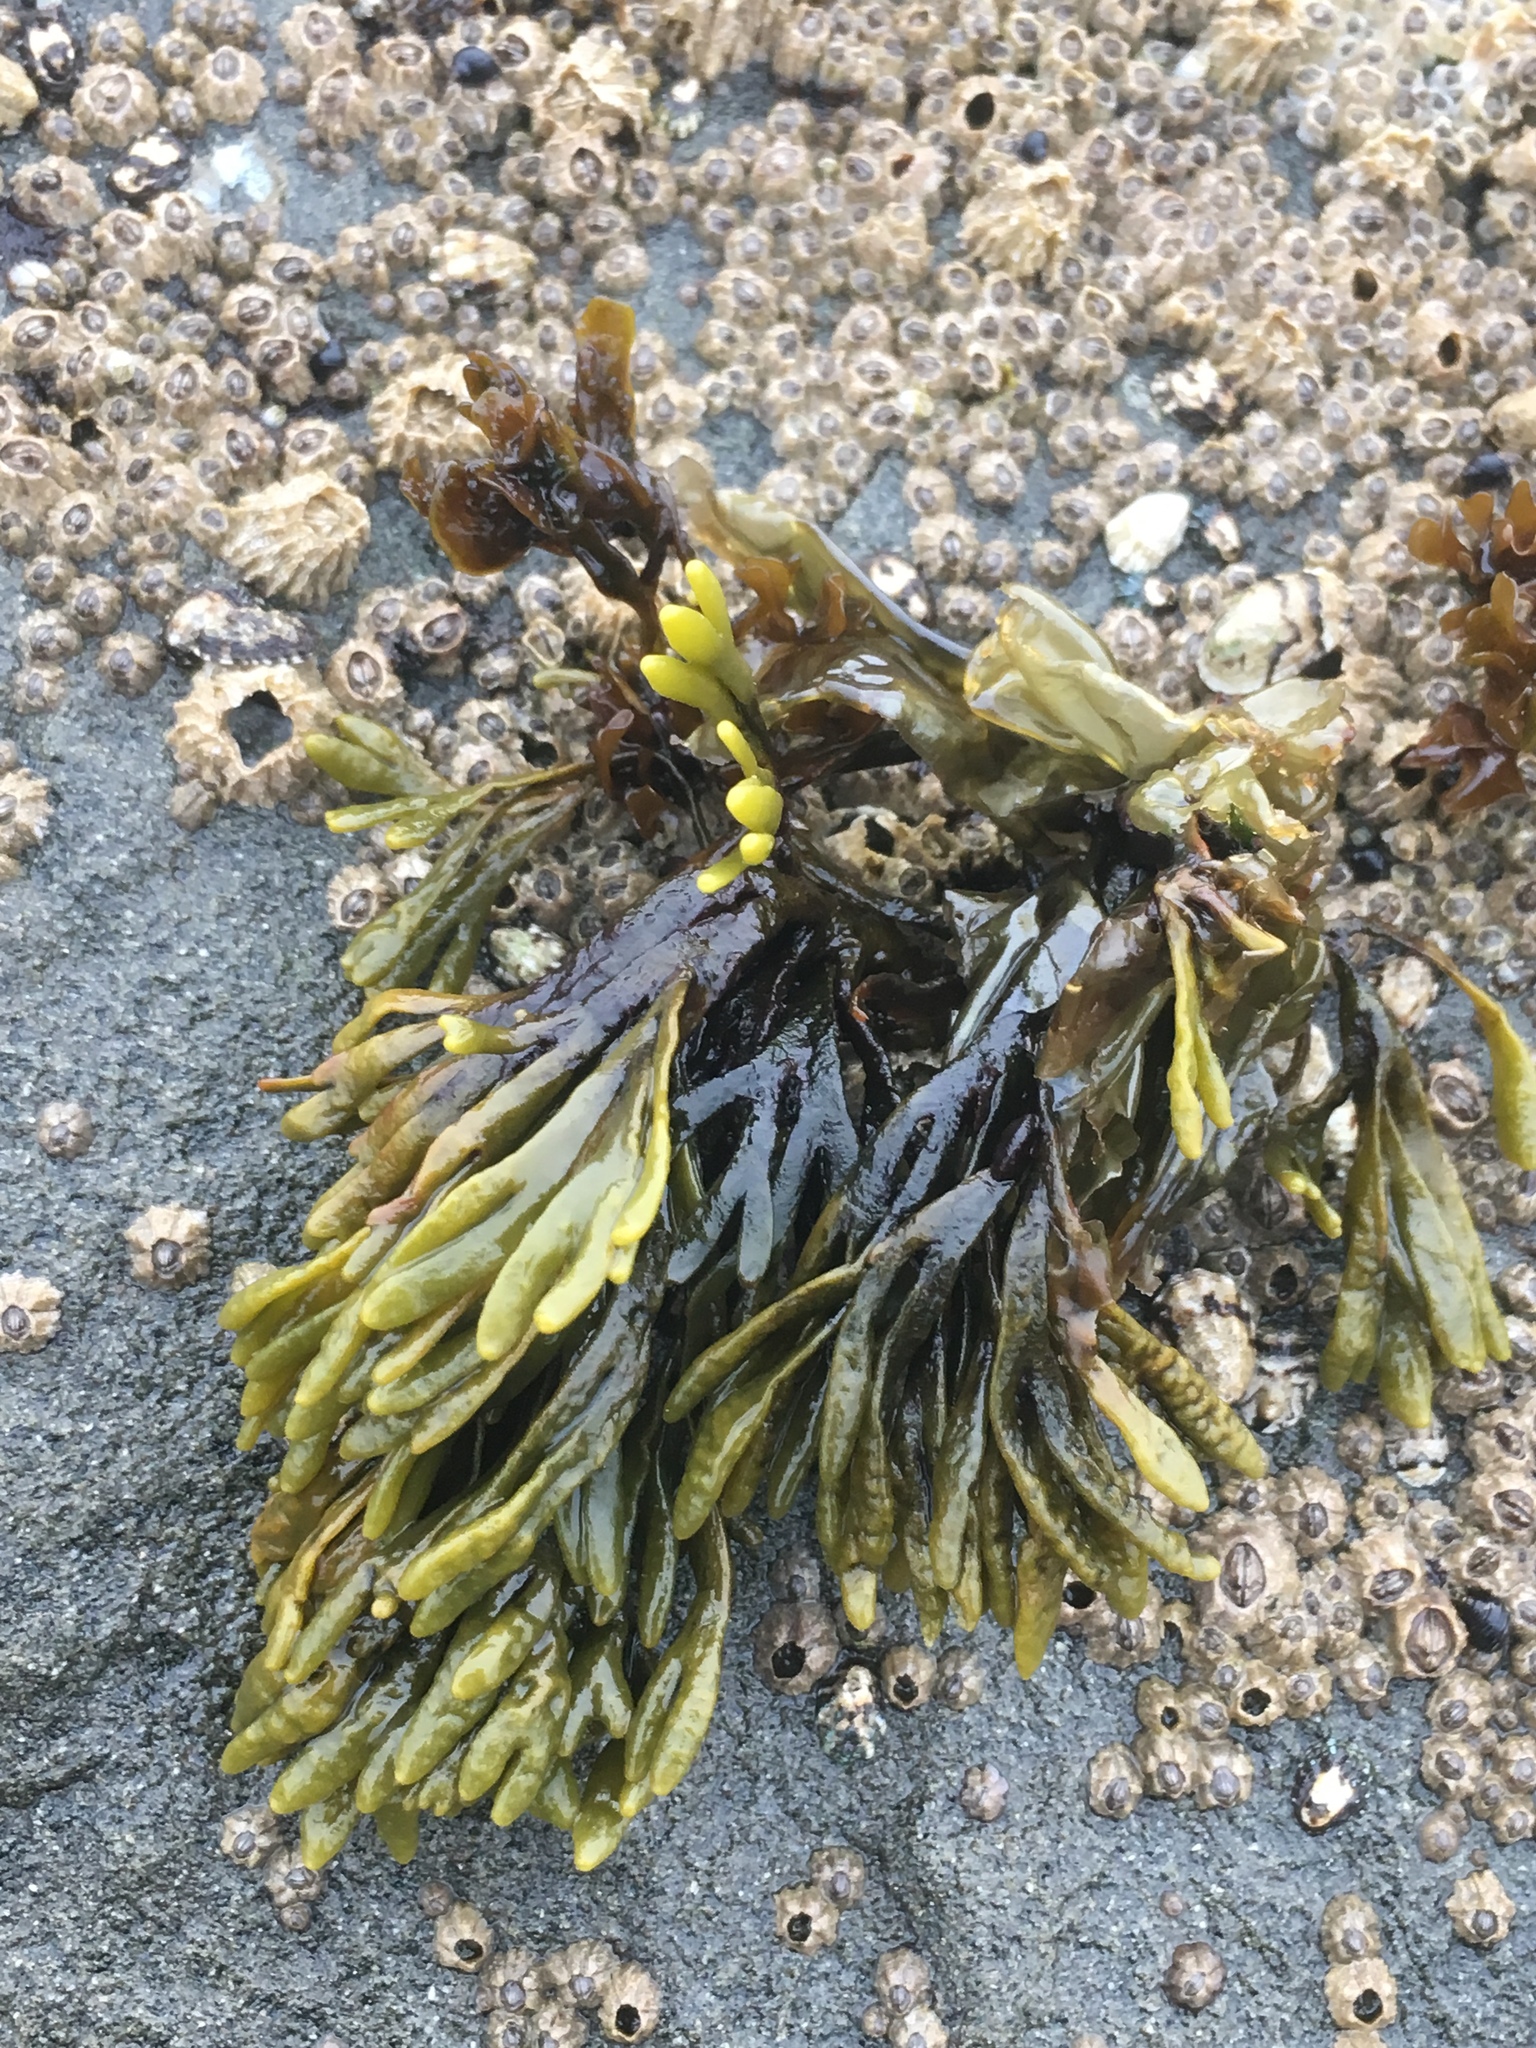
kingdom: Chromista
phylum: Ochrophyta
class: Phaeophyceae
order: Fucales
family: Fucaceae
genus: Silvetia
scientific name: Silvetia
